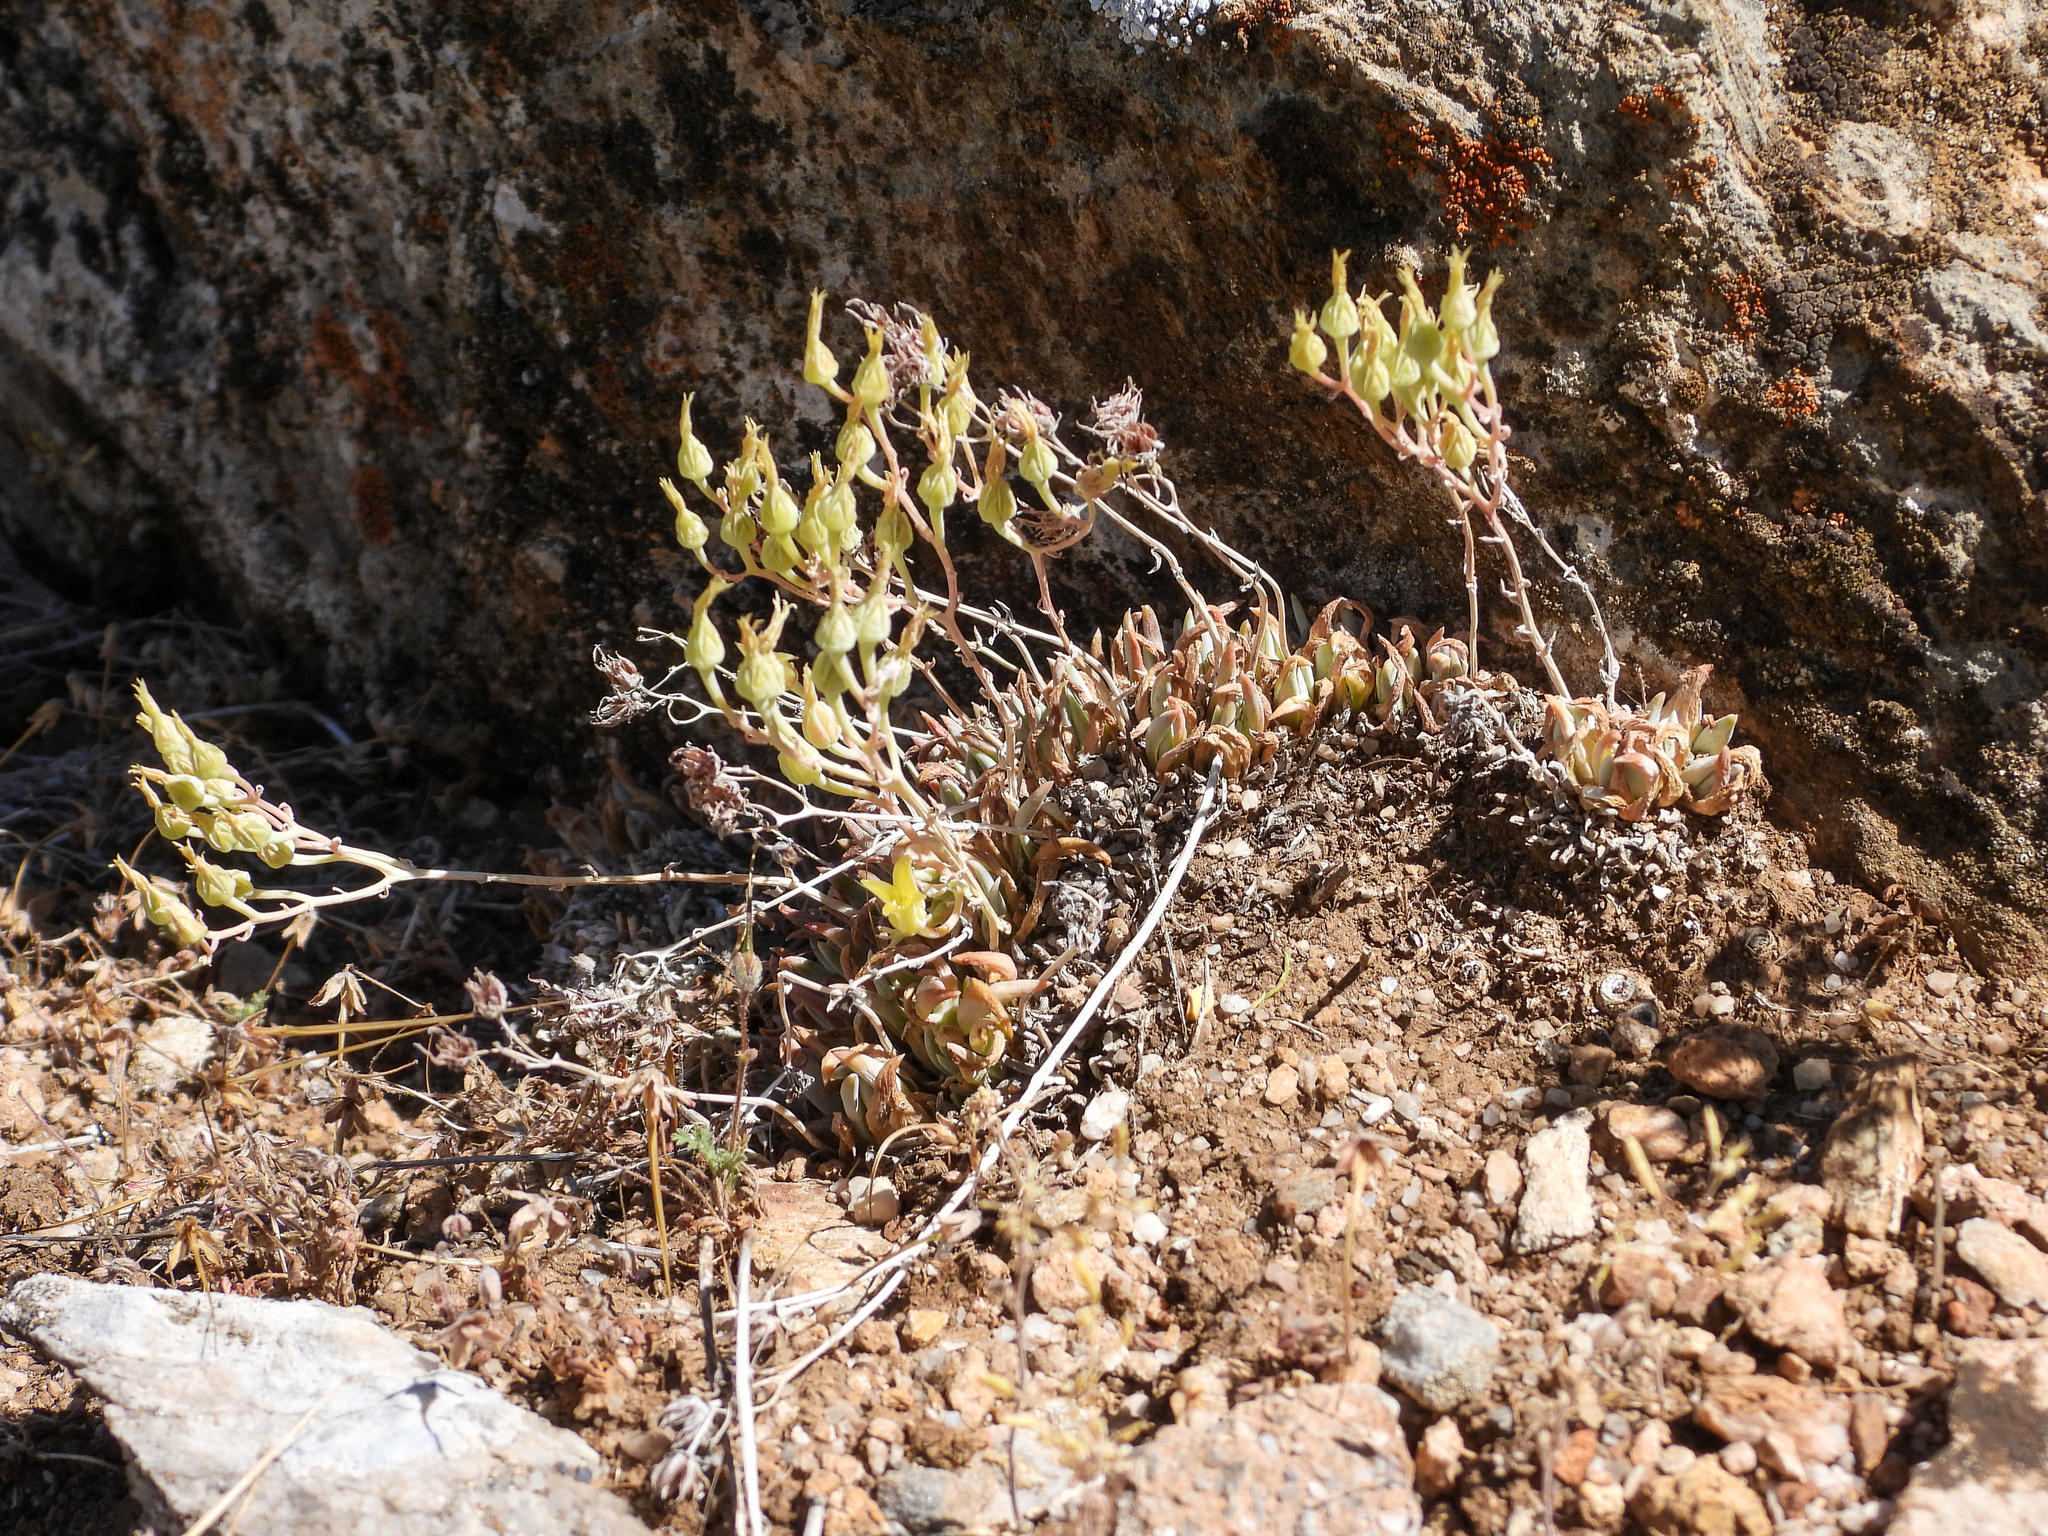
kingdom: Plantae
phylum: Tracheophyta
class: Magnoliopsida
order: Saxifragales
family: Crassulaceae
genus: Dudleya
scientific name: Dudleya calcicola
